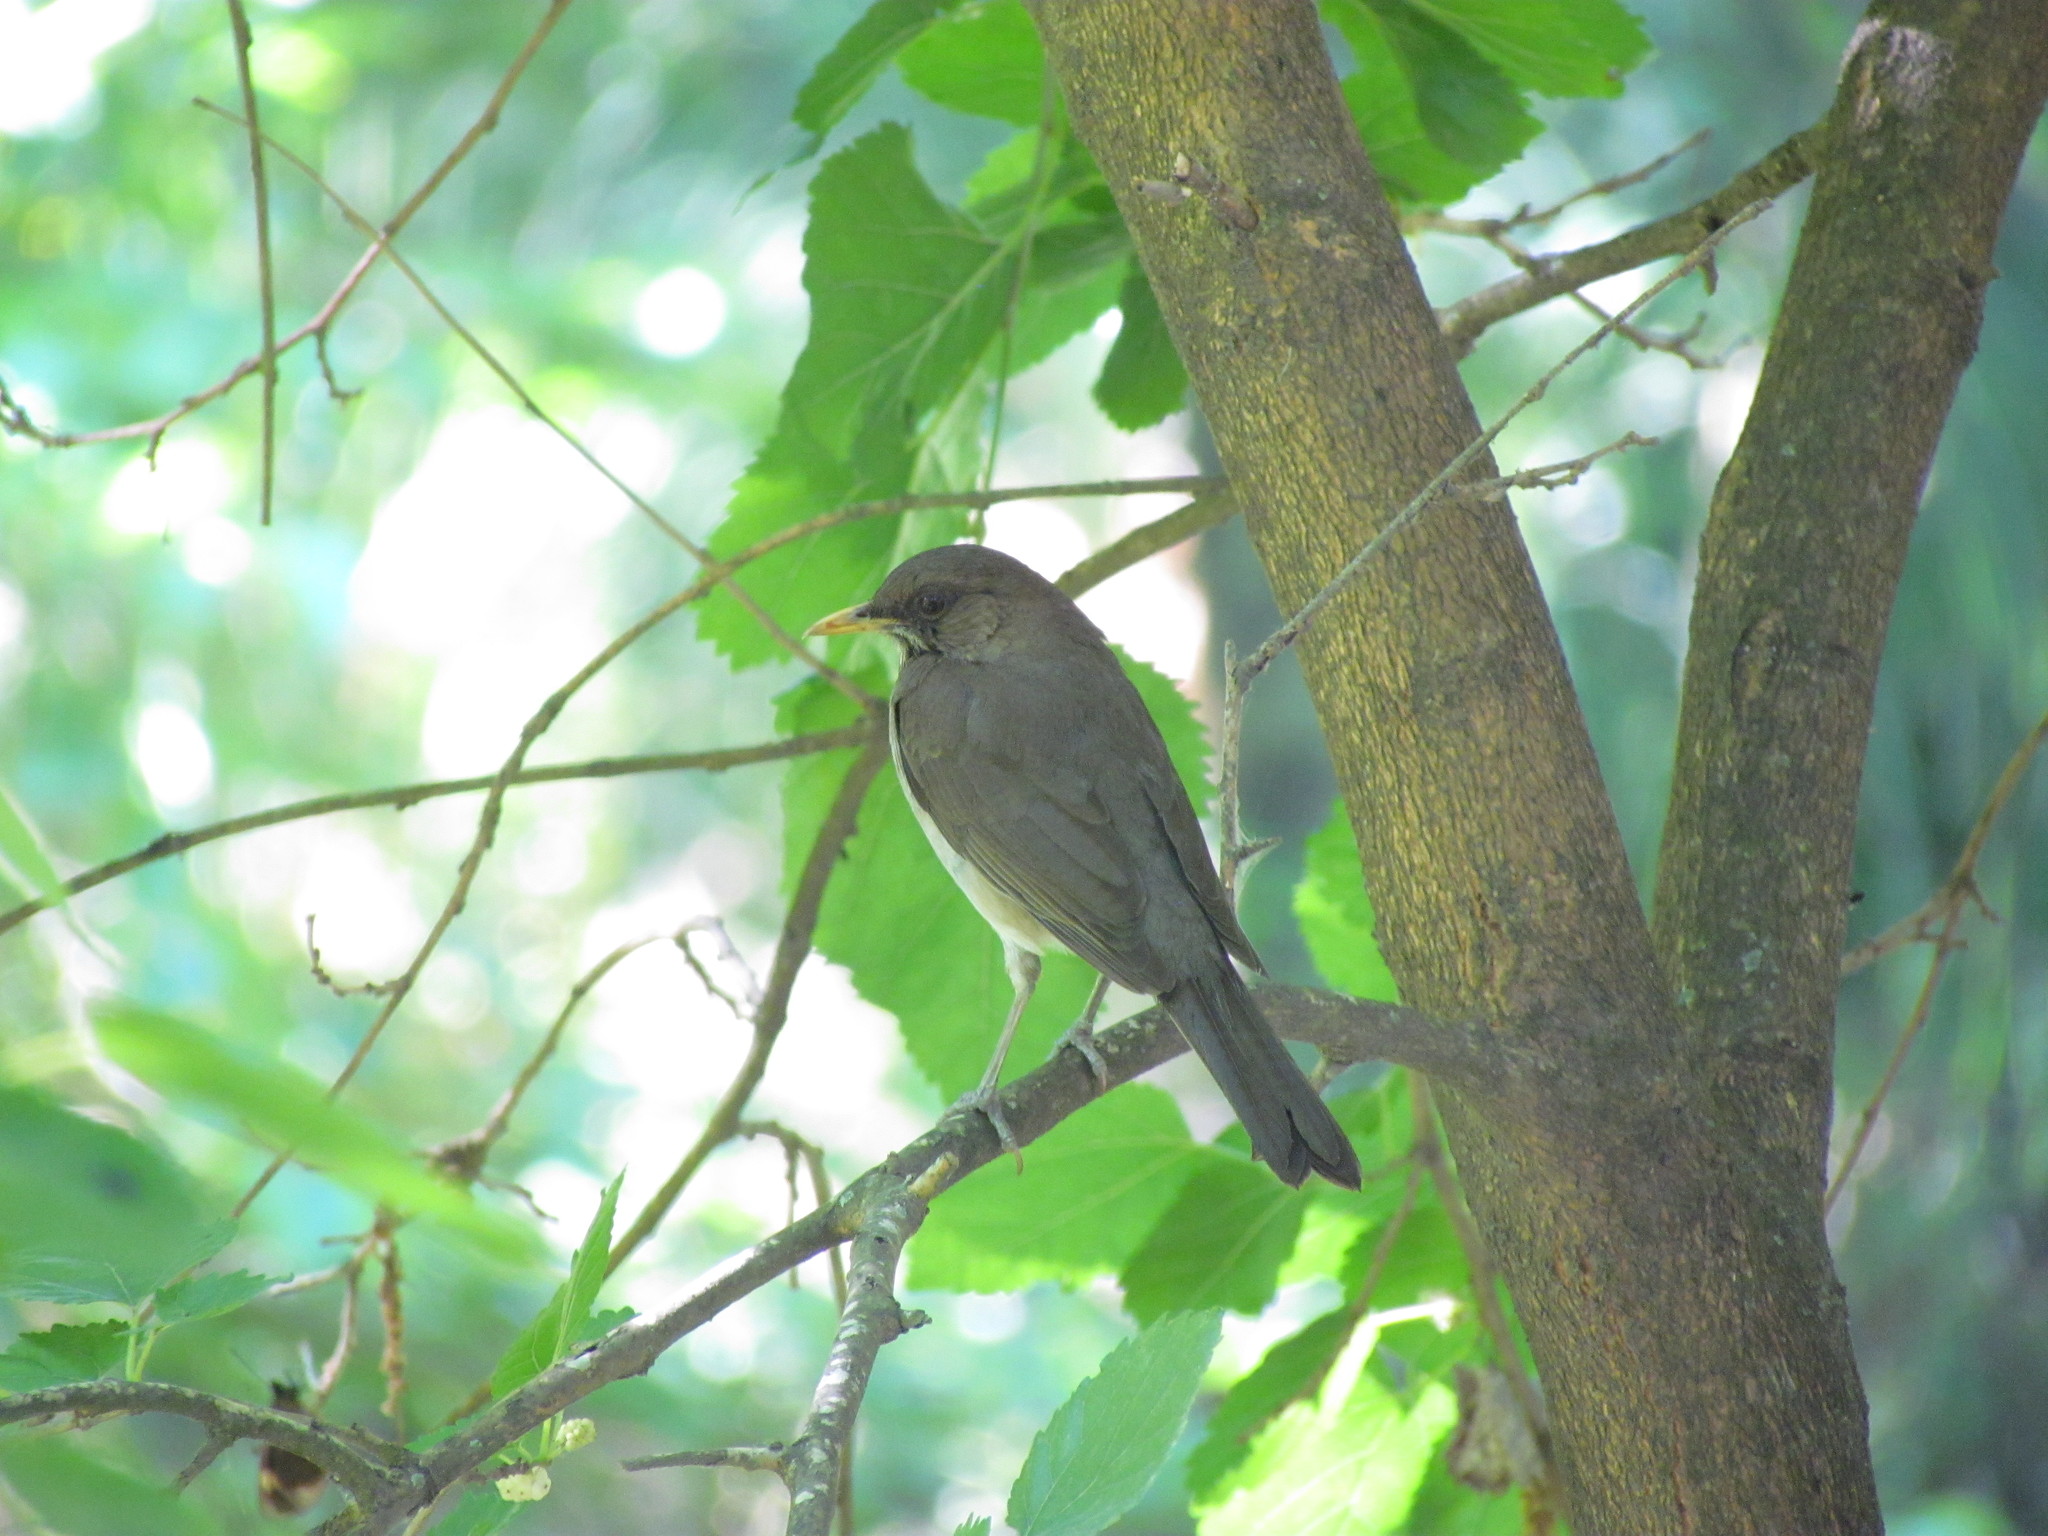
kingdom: Animalia
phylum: Chordata
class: Aves
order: Passeriformes
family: Turdidae
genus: Turdus
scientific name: Turdus amaurochalinus
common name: Creamy-bellied thrush
